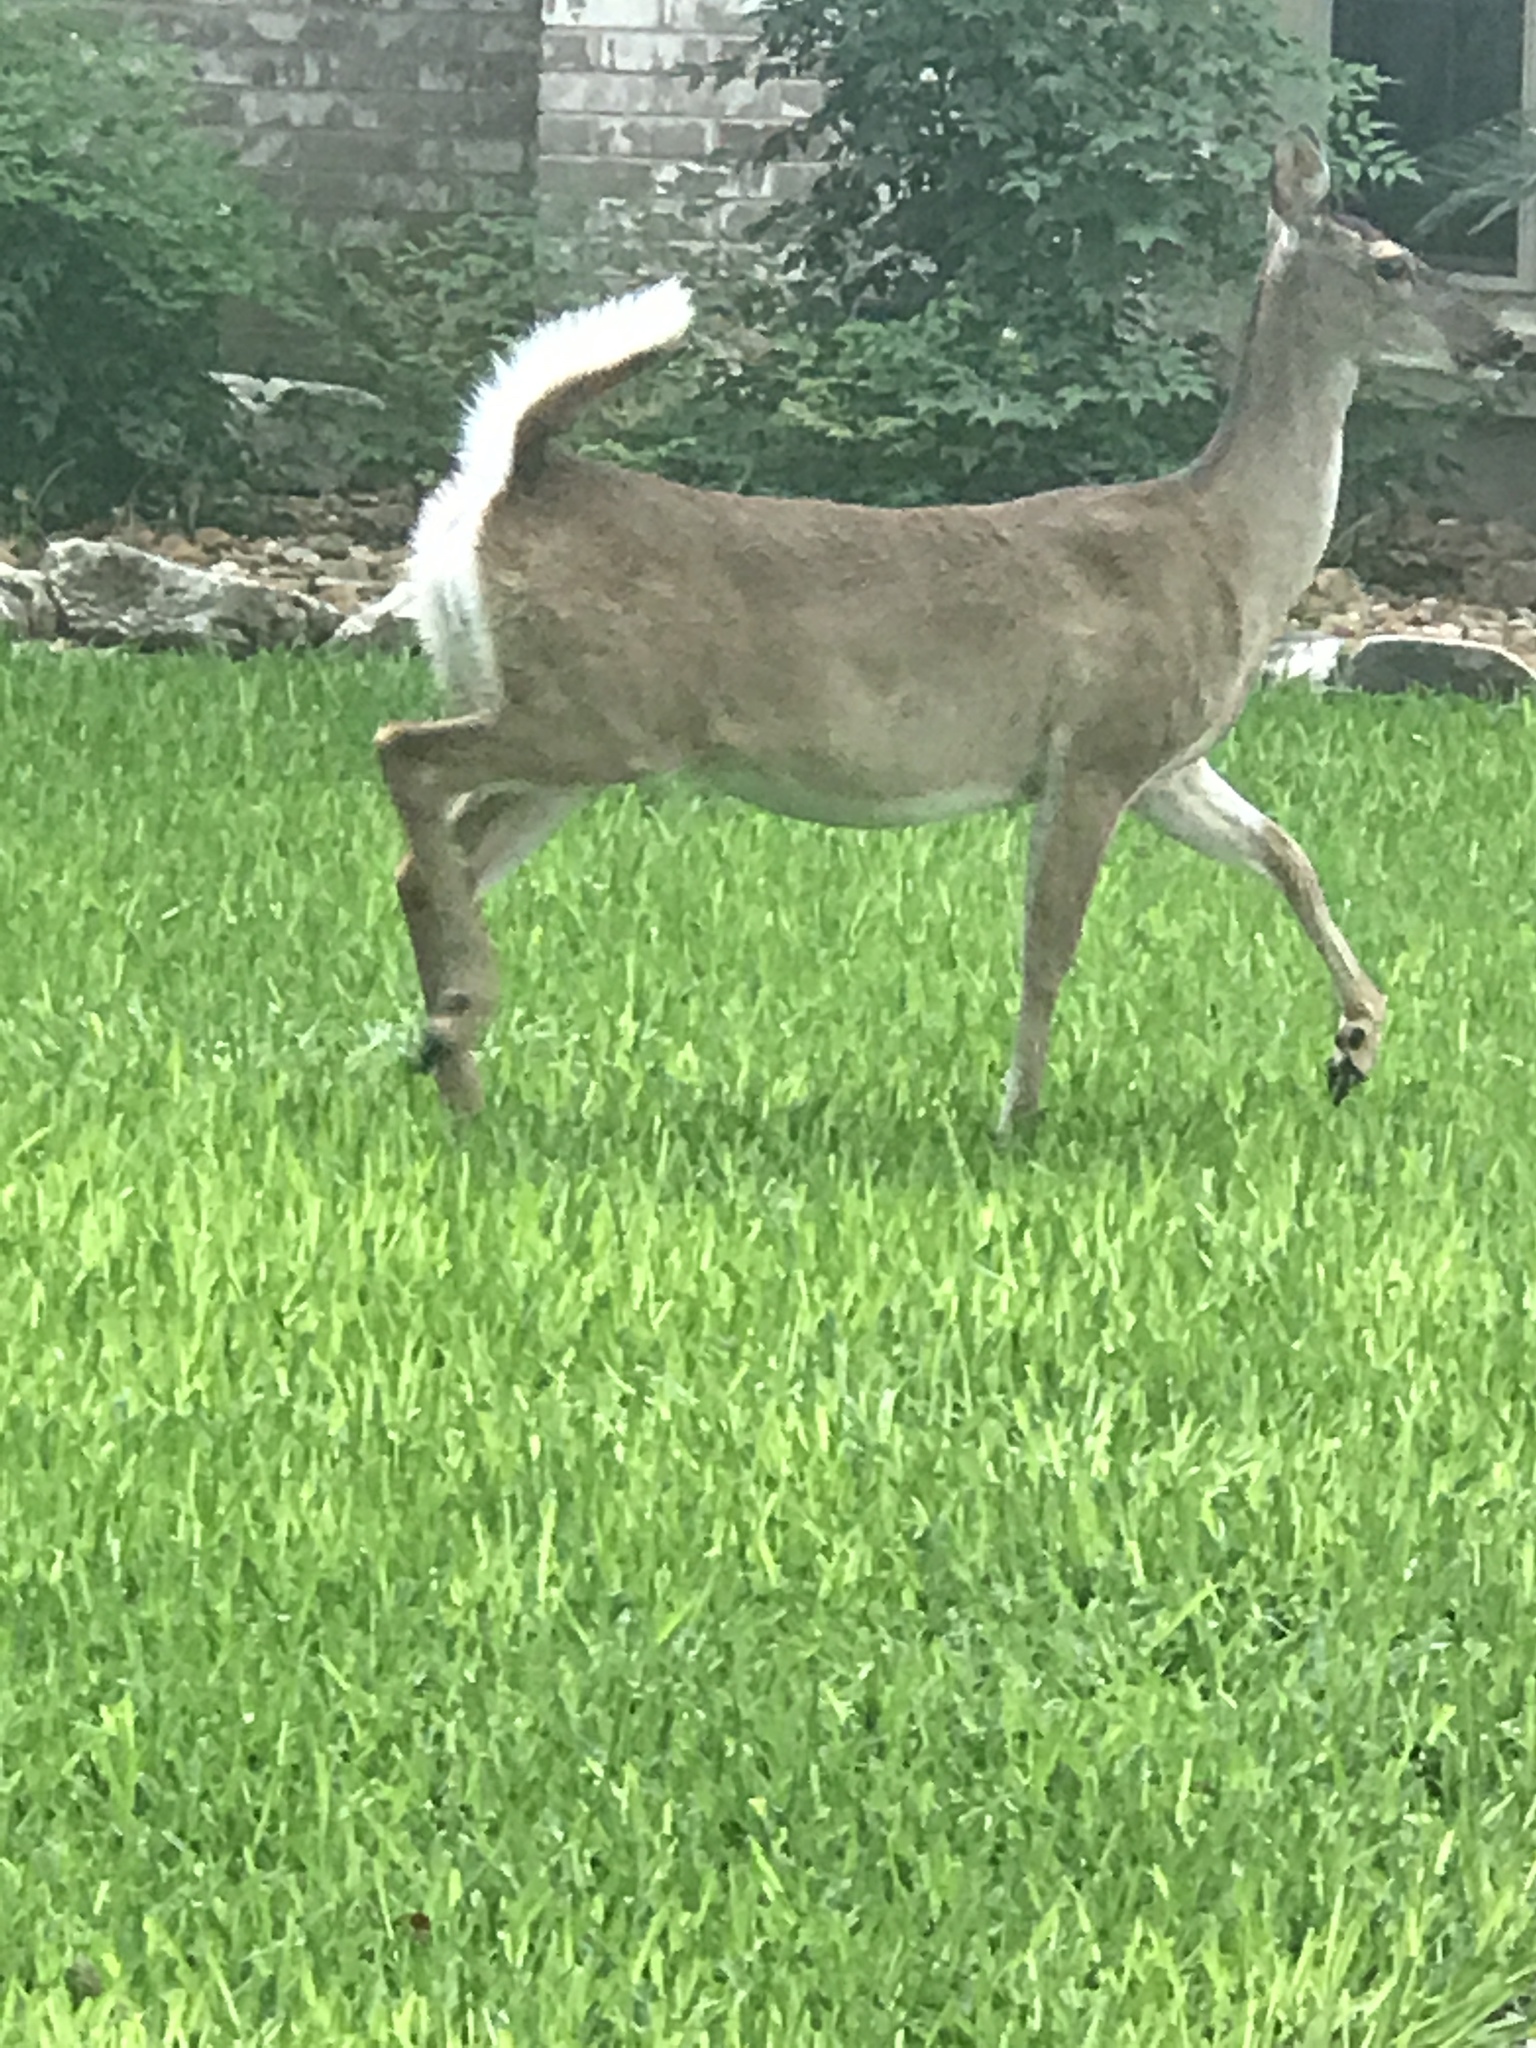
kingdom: Animalia
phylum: Chordata
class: Mammalia
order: Artiodactyla
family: Cervidae
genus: Odocoileus
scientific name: Odocoileus virginianus
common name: White-tailed deer
